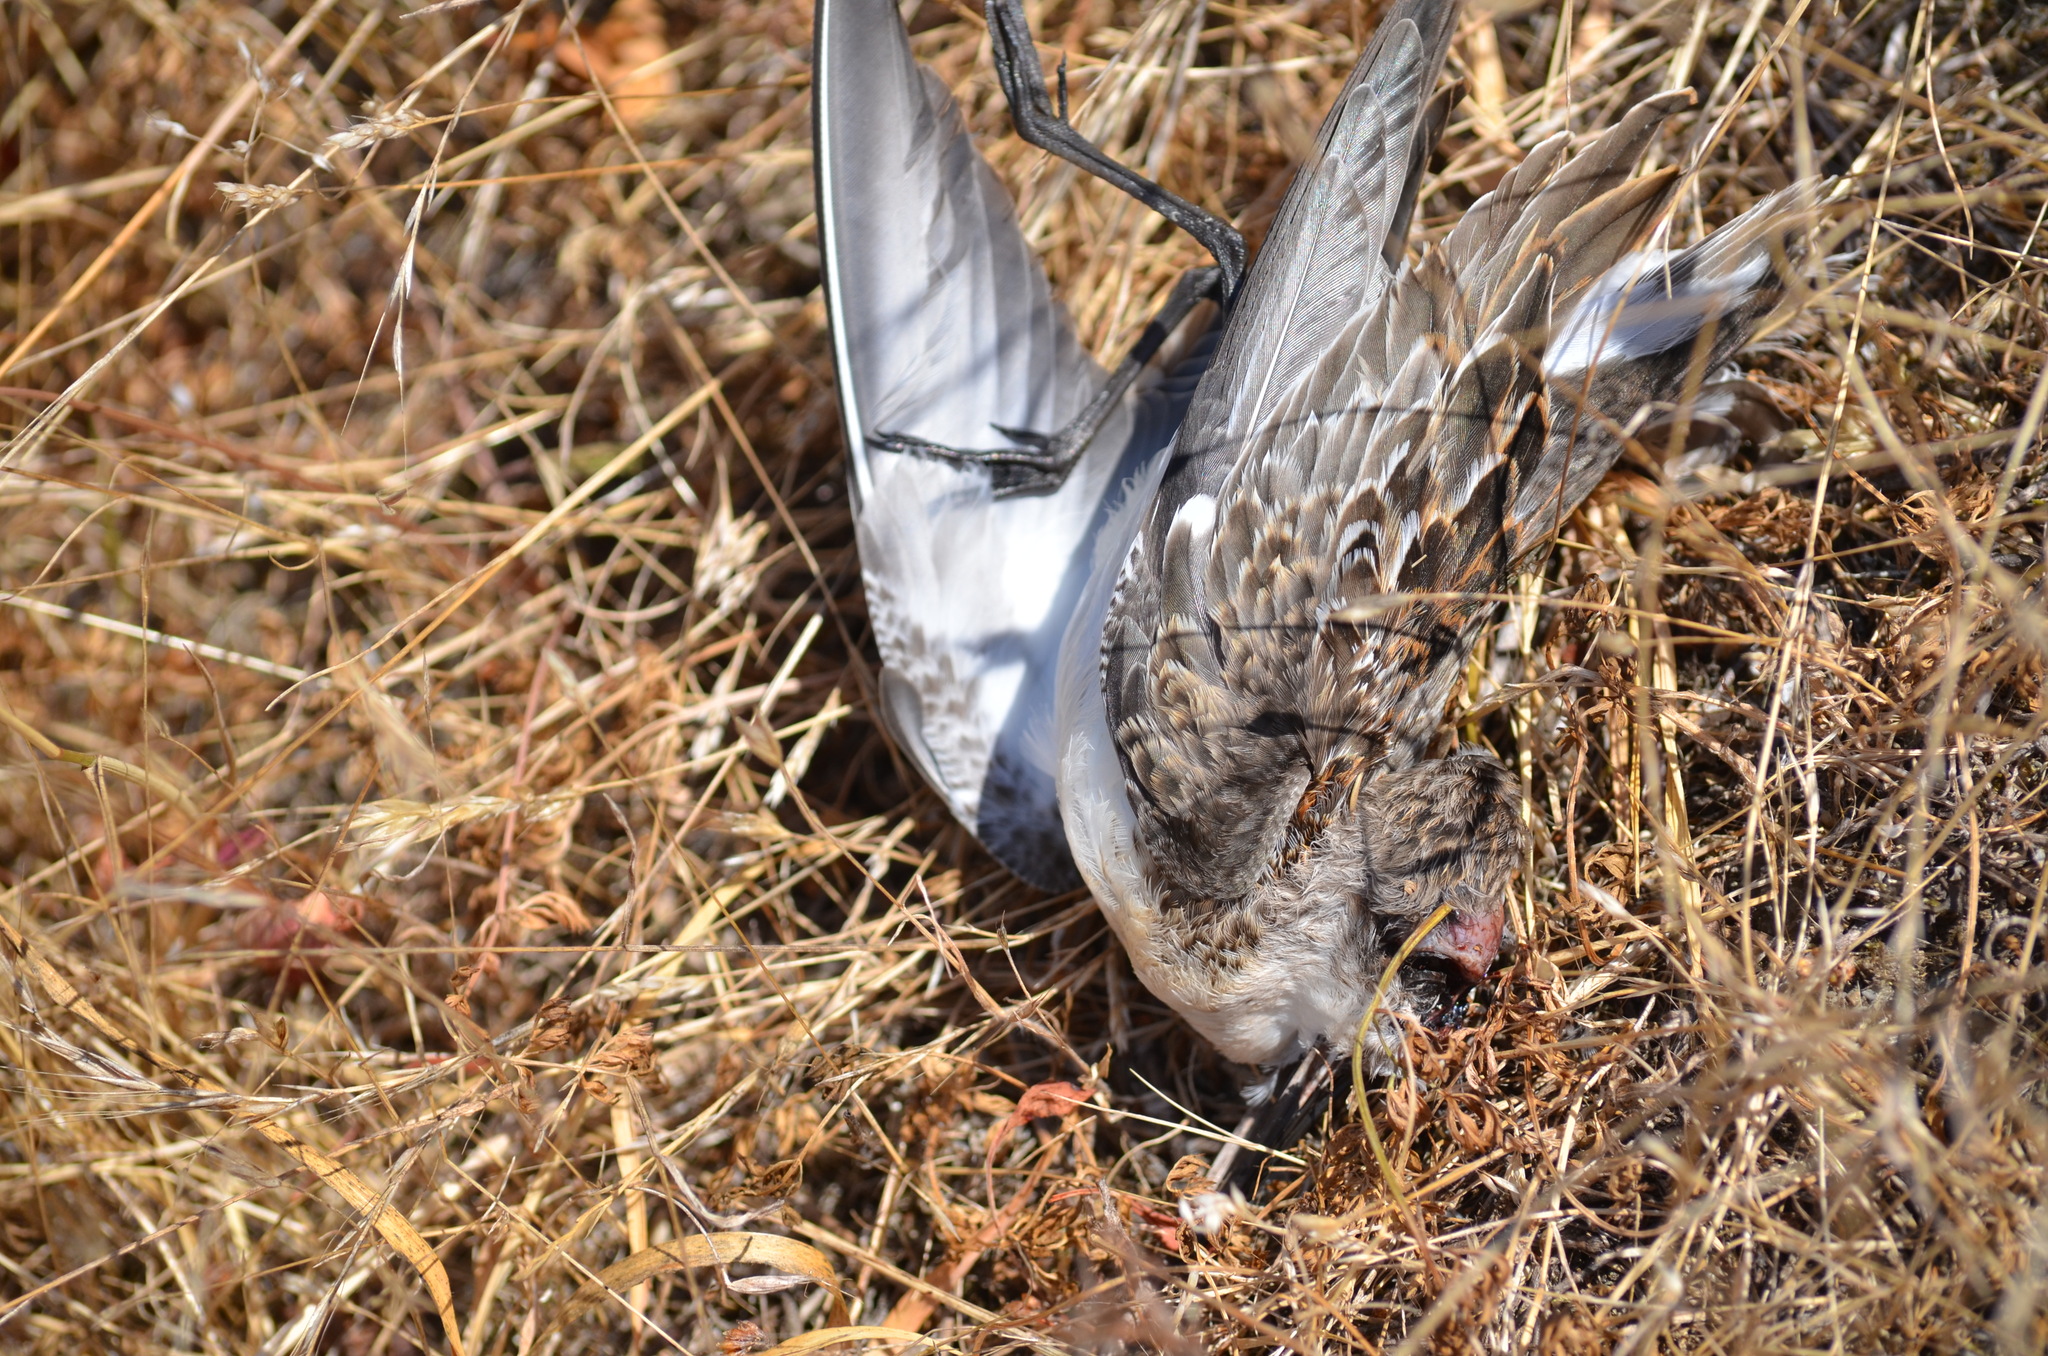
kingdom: Animalia
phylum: Chordata
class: Aves
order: Charadriiformes
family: Scolopacidae
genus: Calidris
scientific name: Calidris mauri
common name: Western sandpiper
